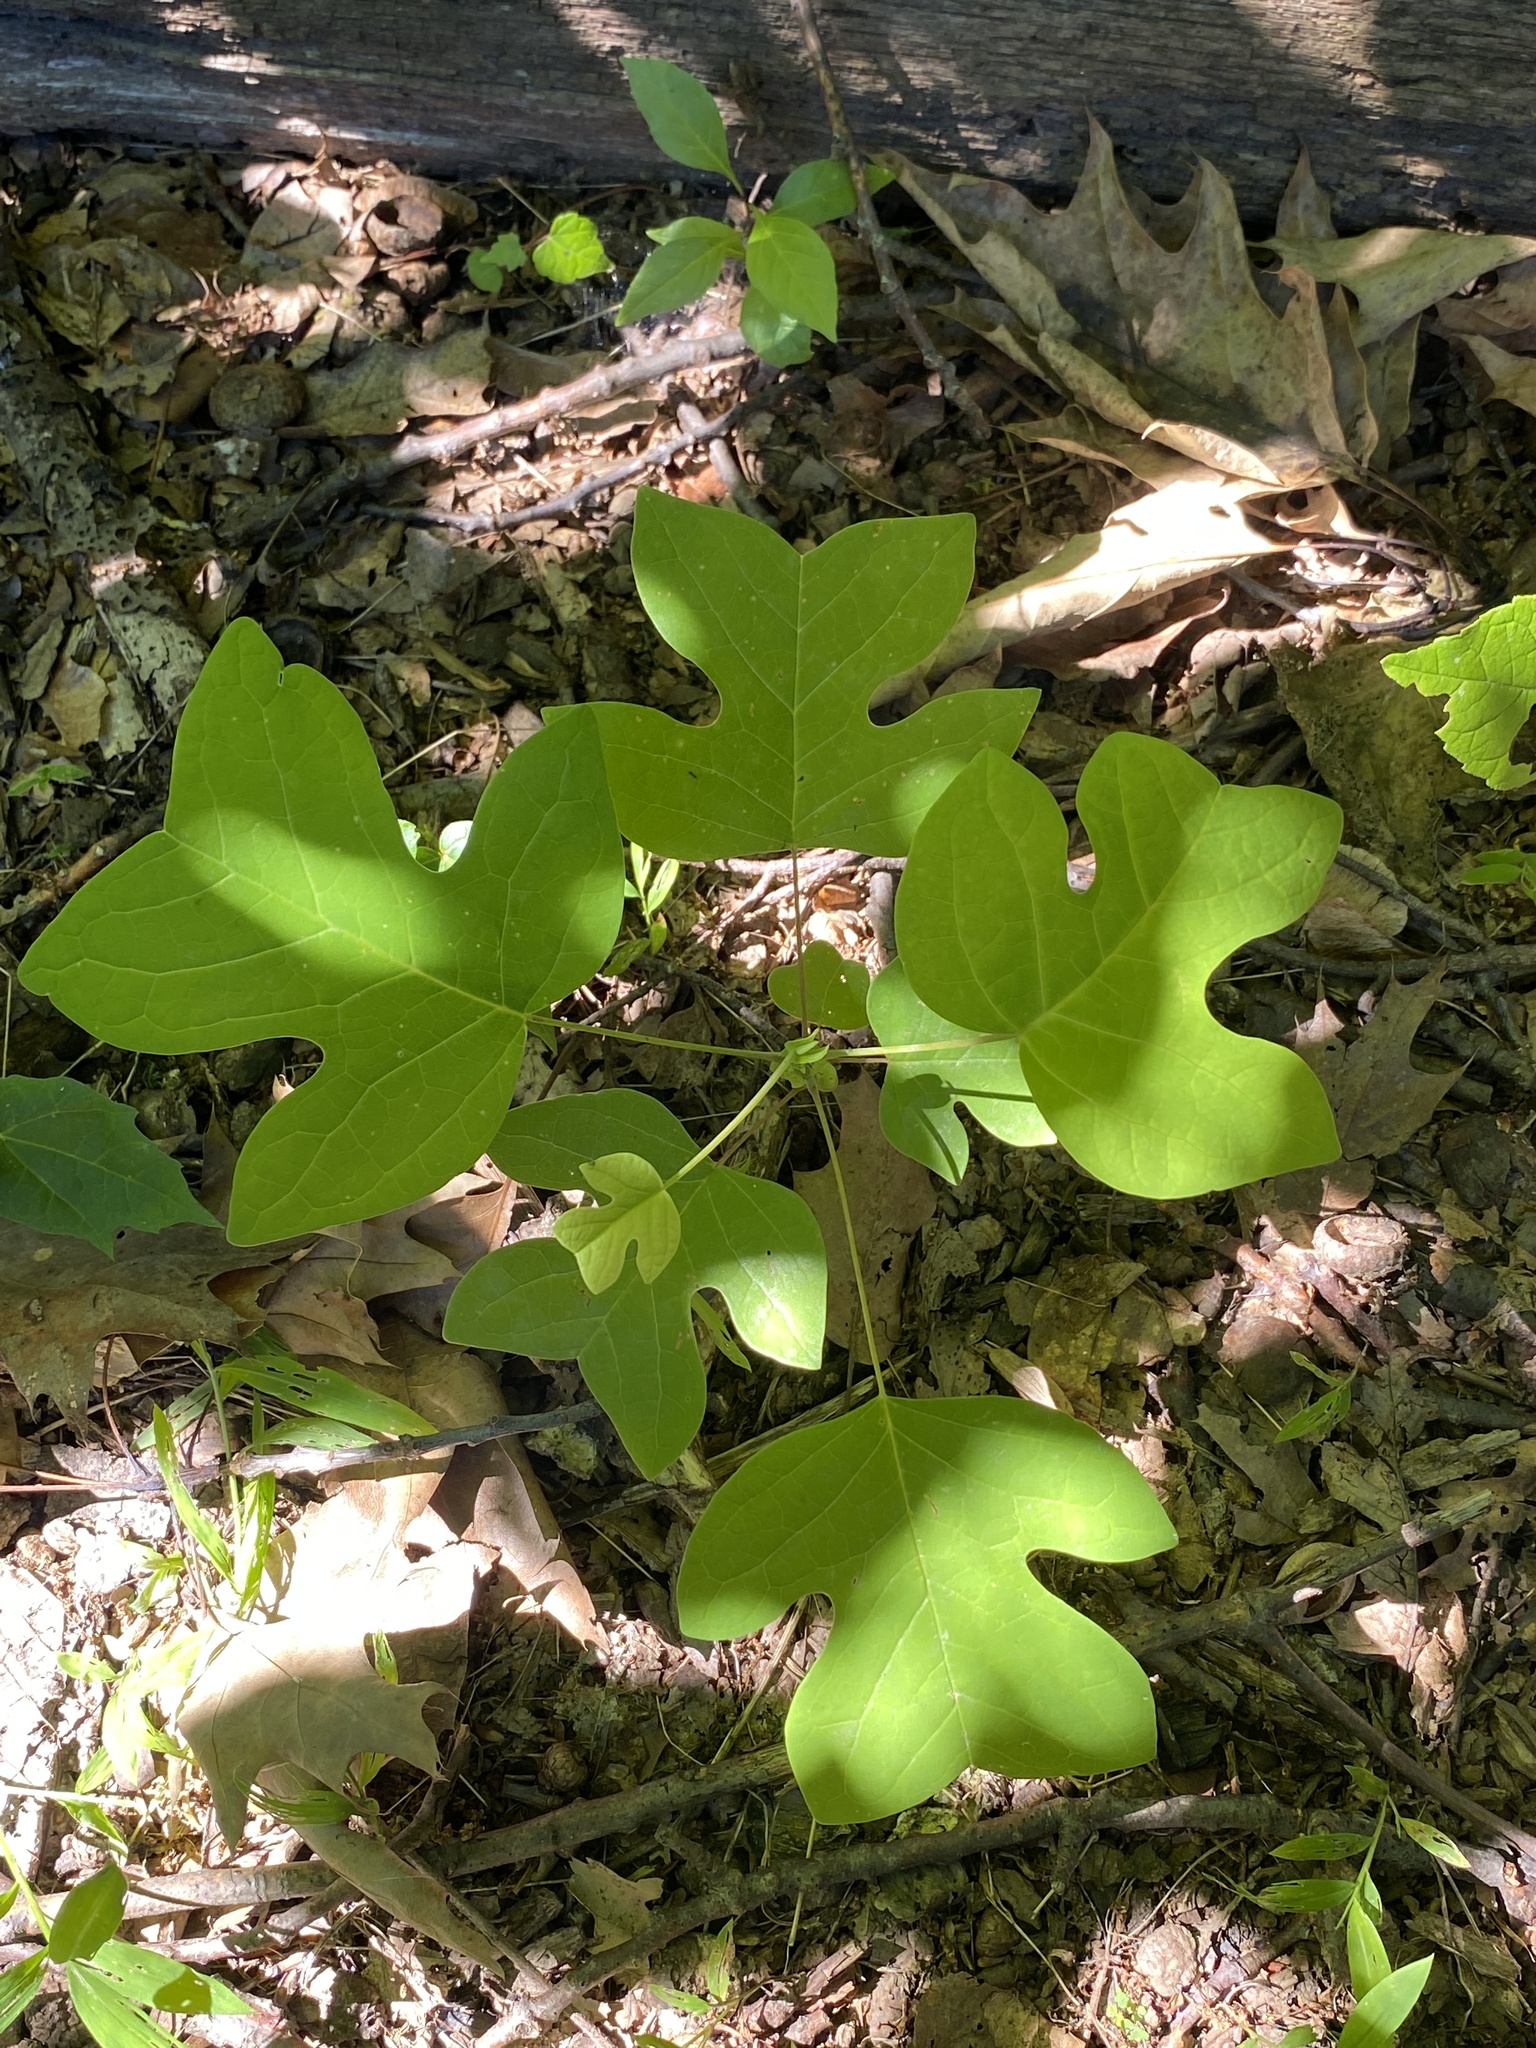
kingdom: Plantae
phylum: Tracheophyta
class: Magnoliopsida
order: Magnoliales
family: Magnoliaceae
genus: Liriodendron
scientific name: Liriodendron tulipifera
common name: Tulip tree
